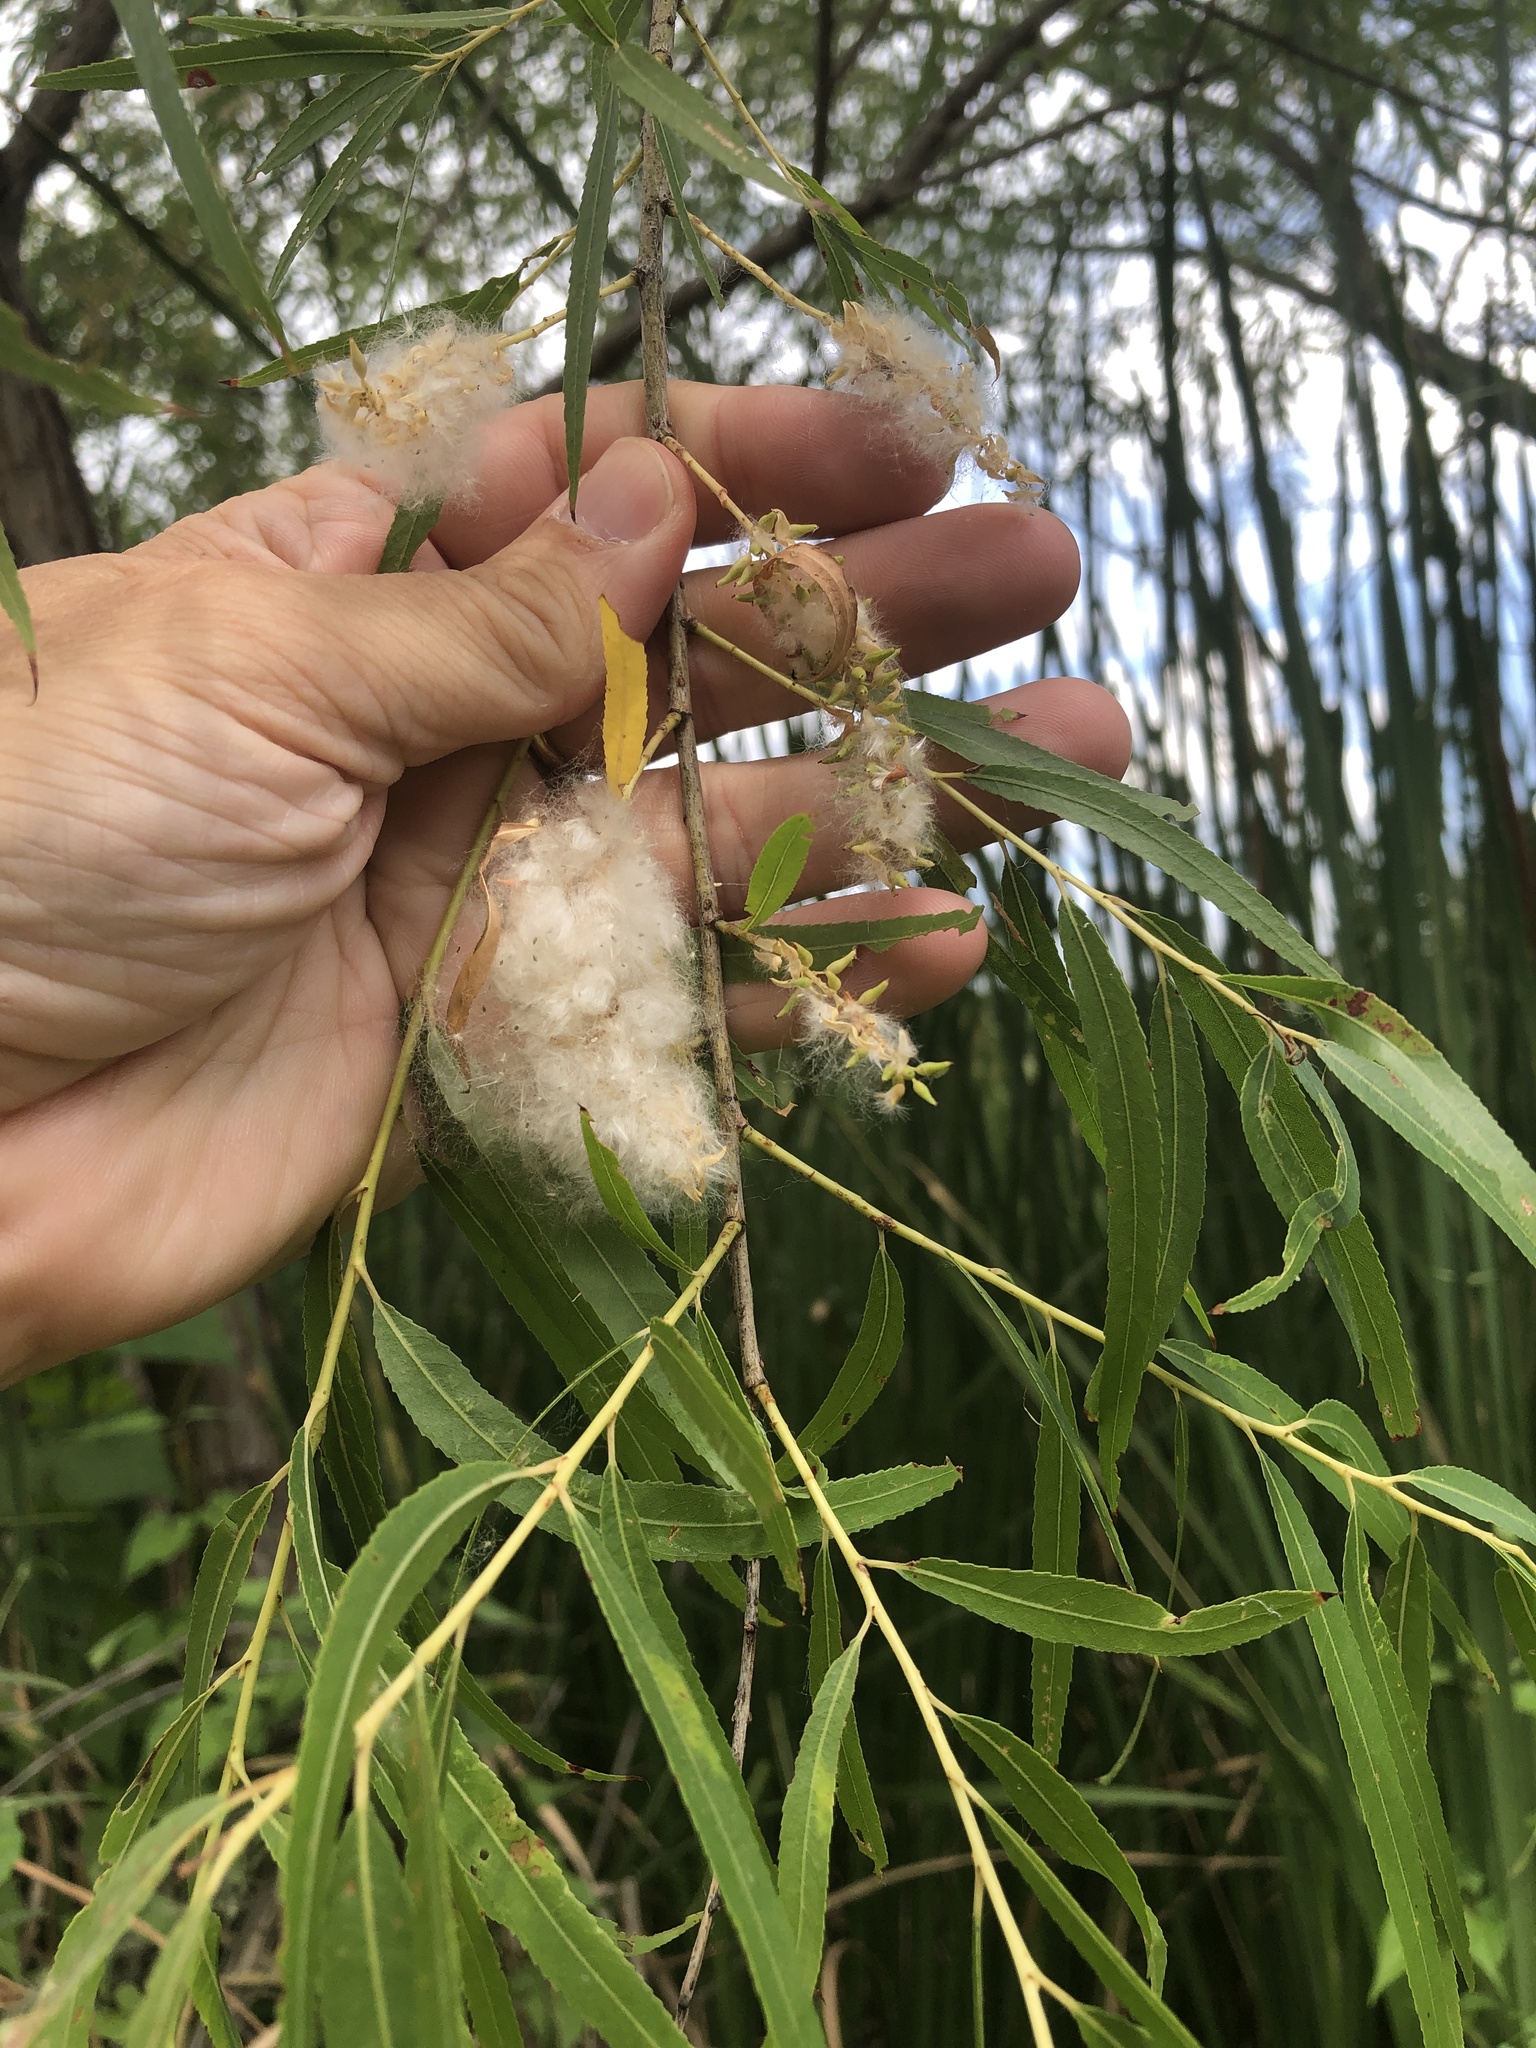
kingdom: Plantae
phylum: Tracheophyta
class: Magnoliopsida
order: Malpighiales
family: Salicaceae
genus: Salix
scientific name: Salix nigra
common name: Black willow
